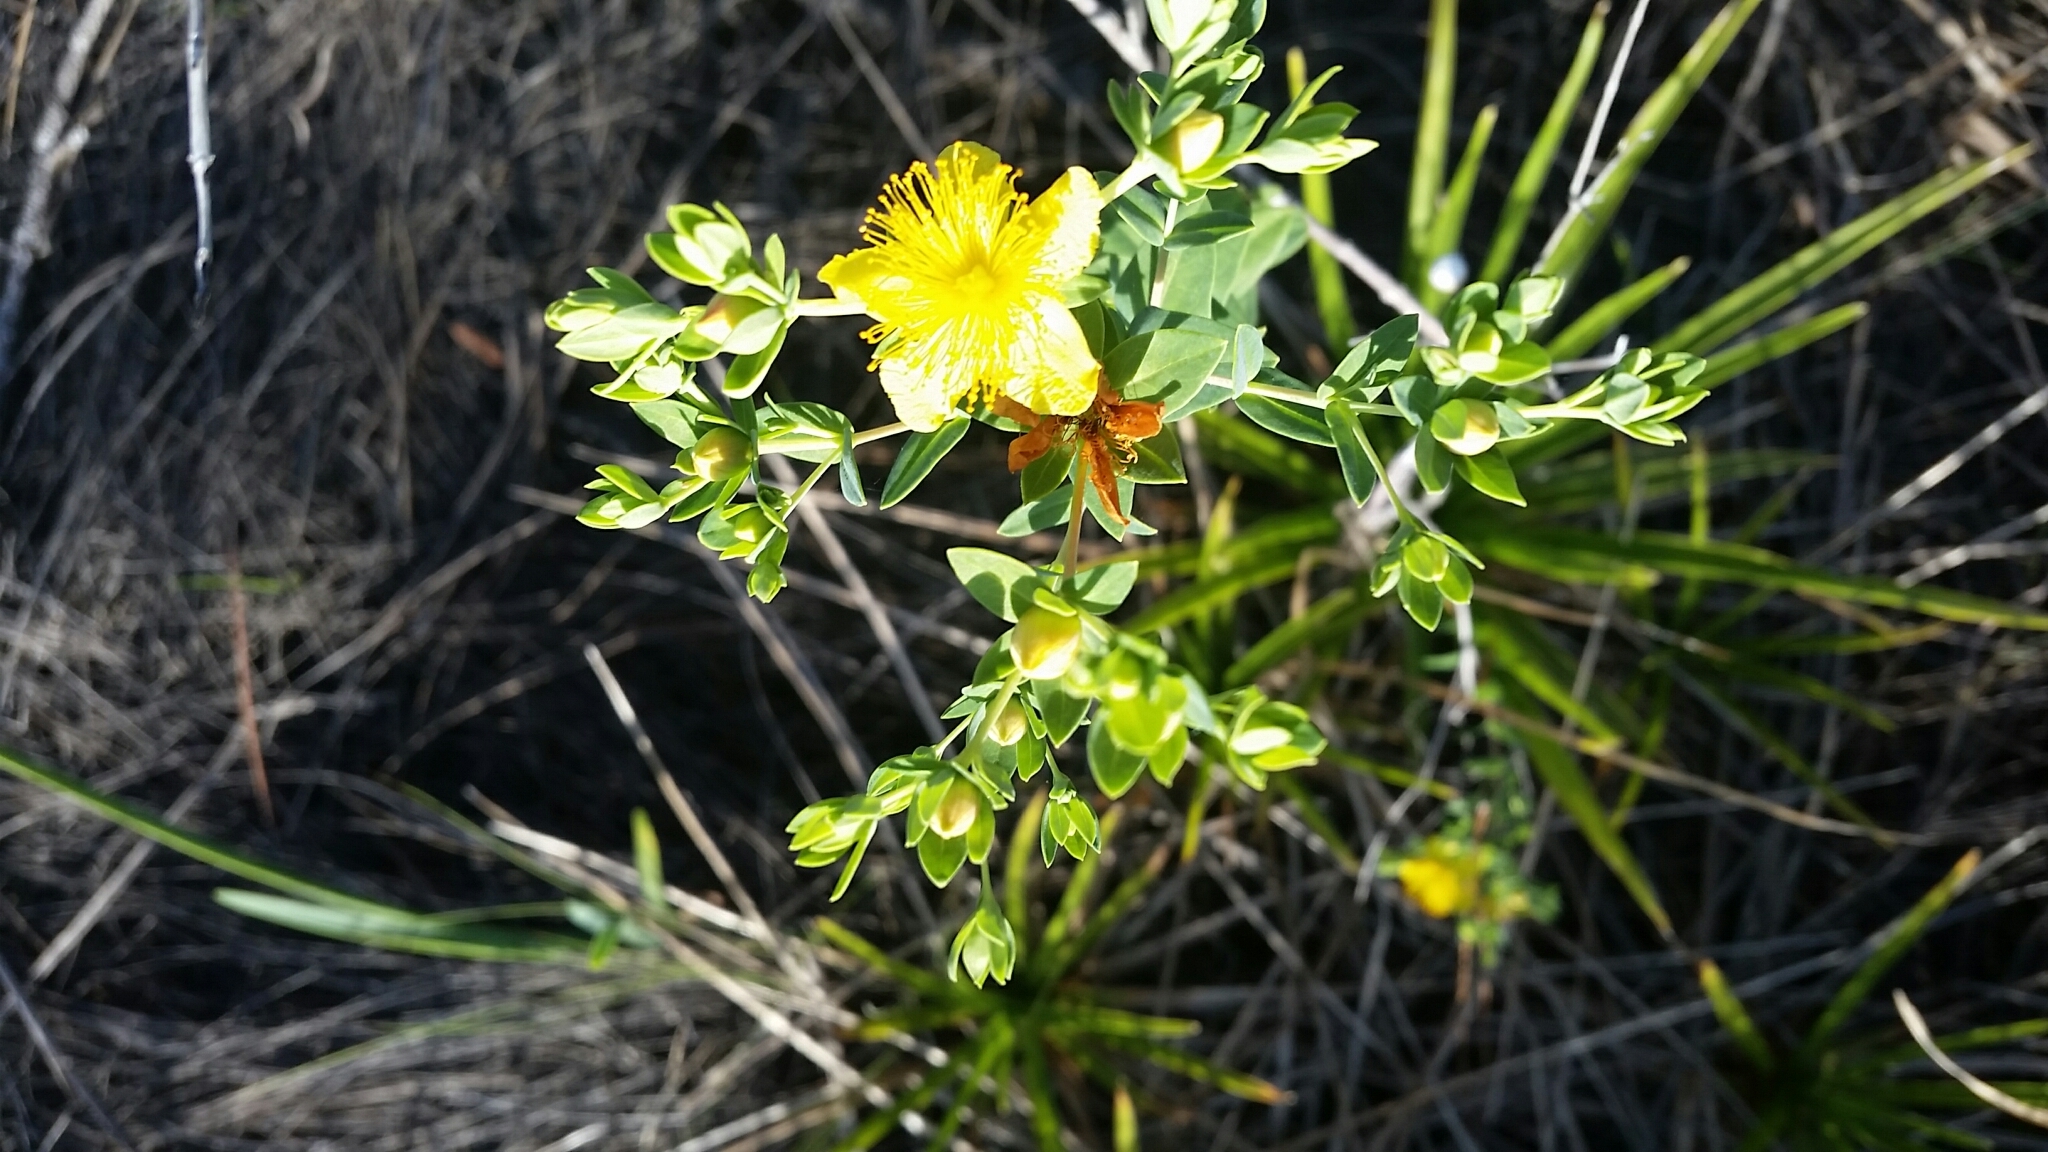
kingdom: Plantae
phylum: Tracheophyta
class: Magnoliopsida
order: Malpighiales
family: Hypericaceae
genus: Hypericum
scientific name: Hypericum myrtifolium
